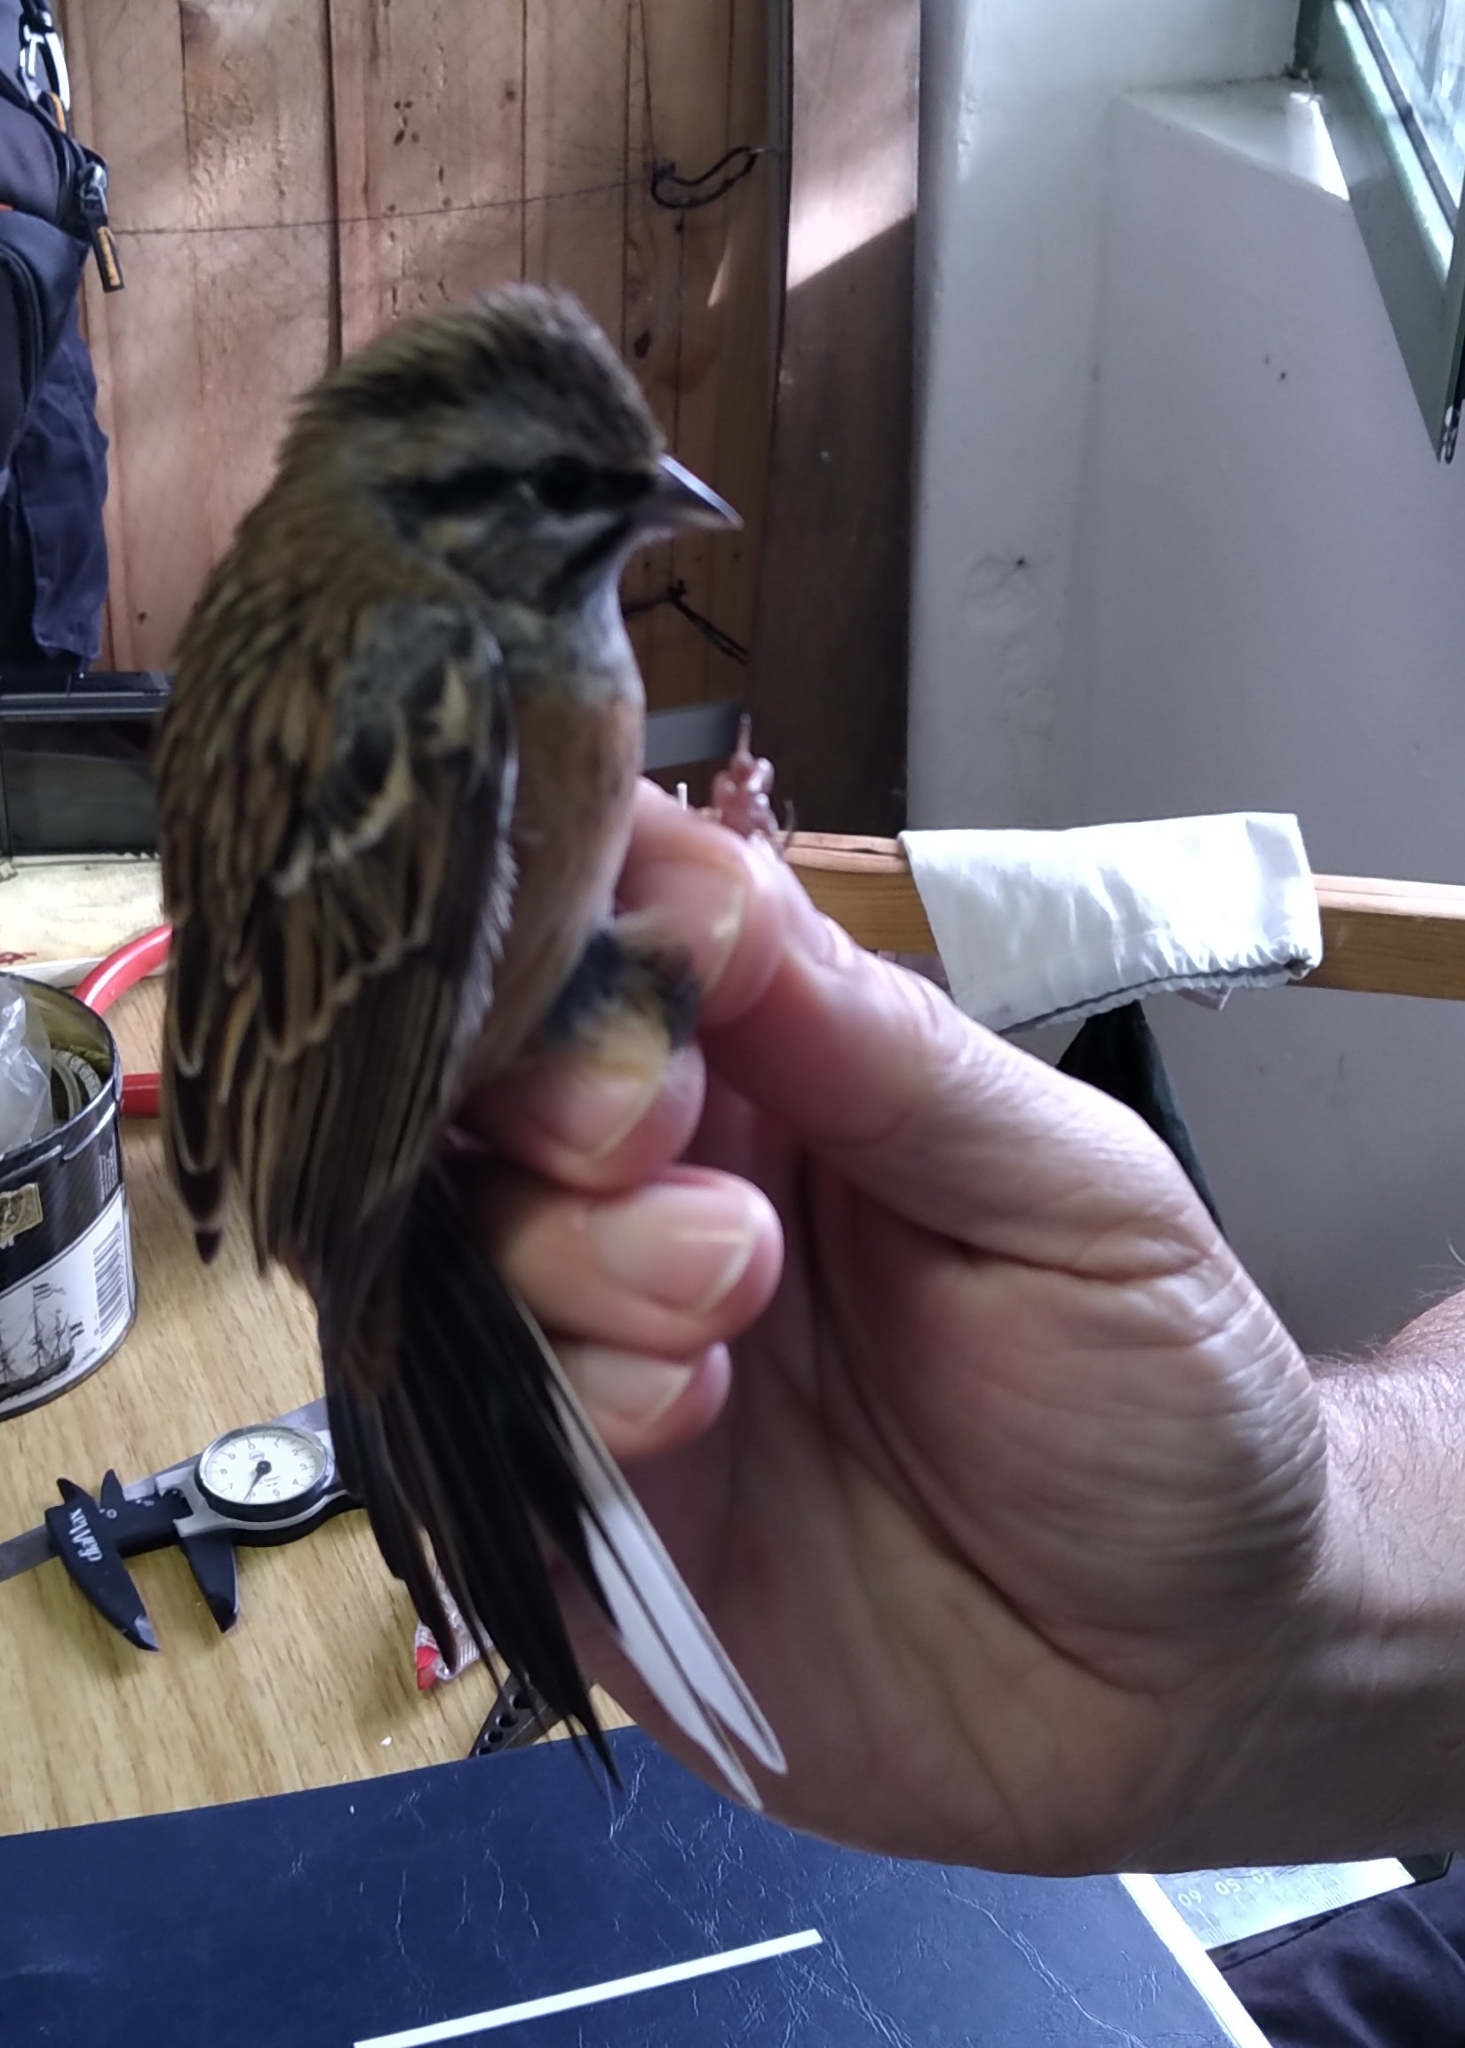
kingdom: Animalia
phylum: Chordata
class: Aves
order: Passeriformes
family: Emberizidae
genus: Emberiza
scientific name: Emberiza cia
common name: Rock bunting
